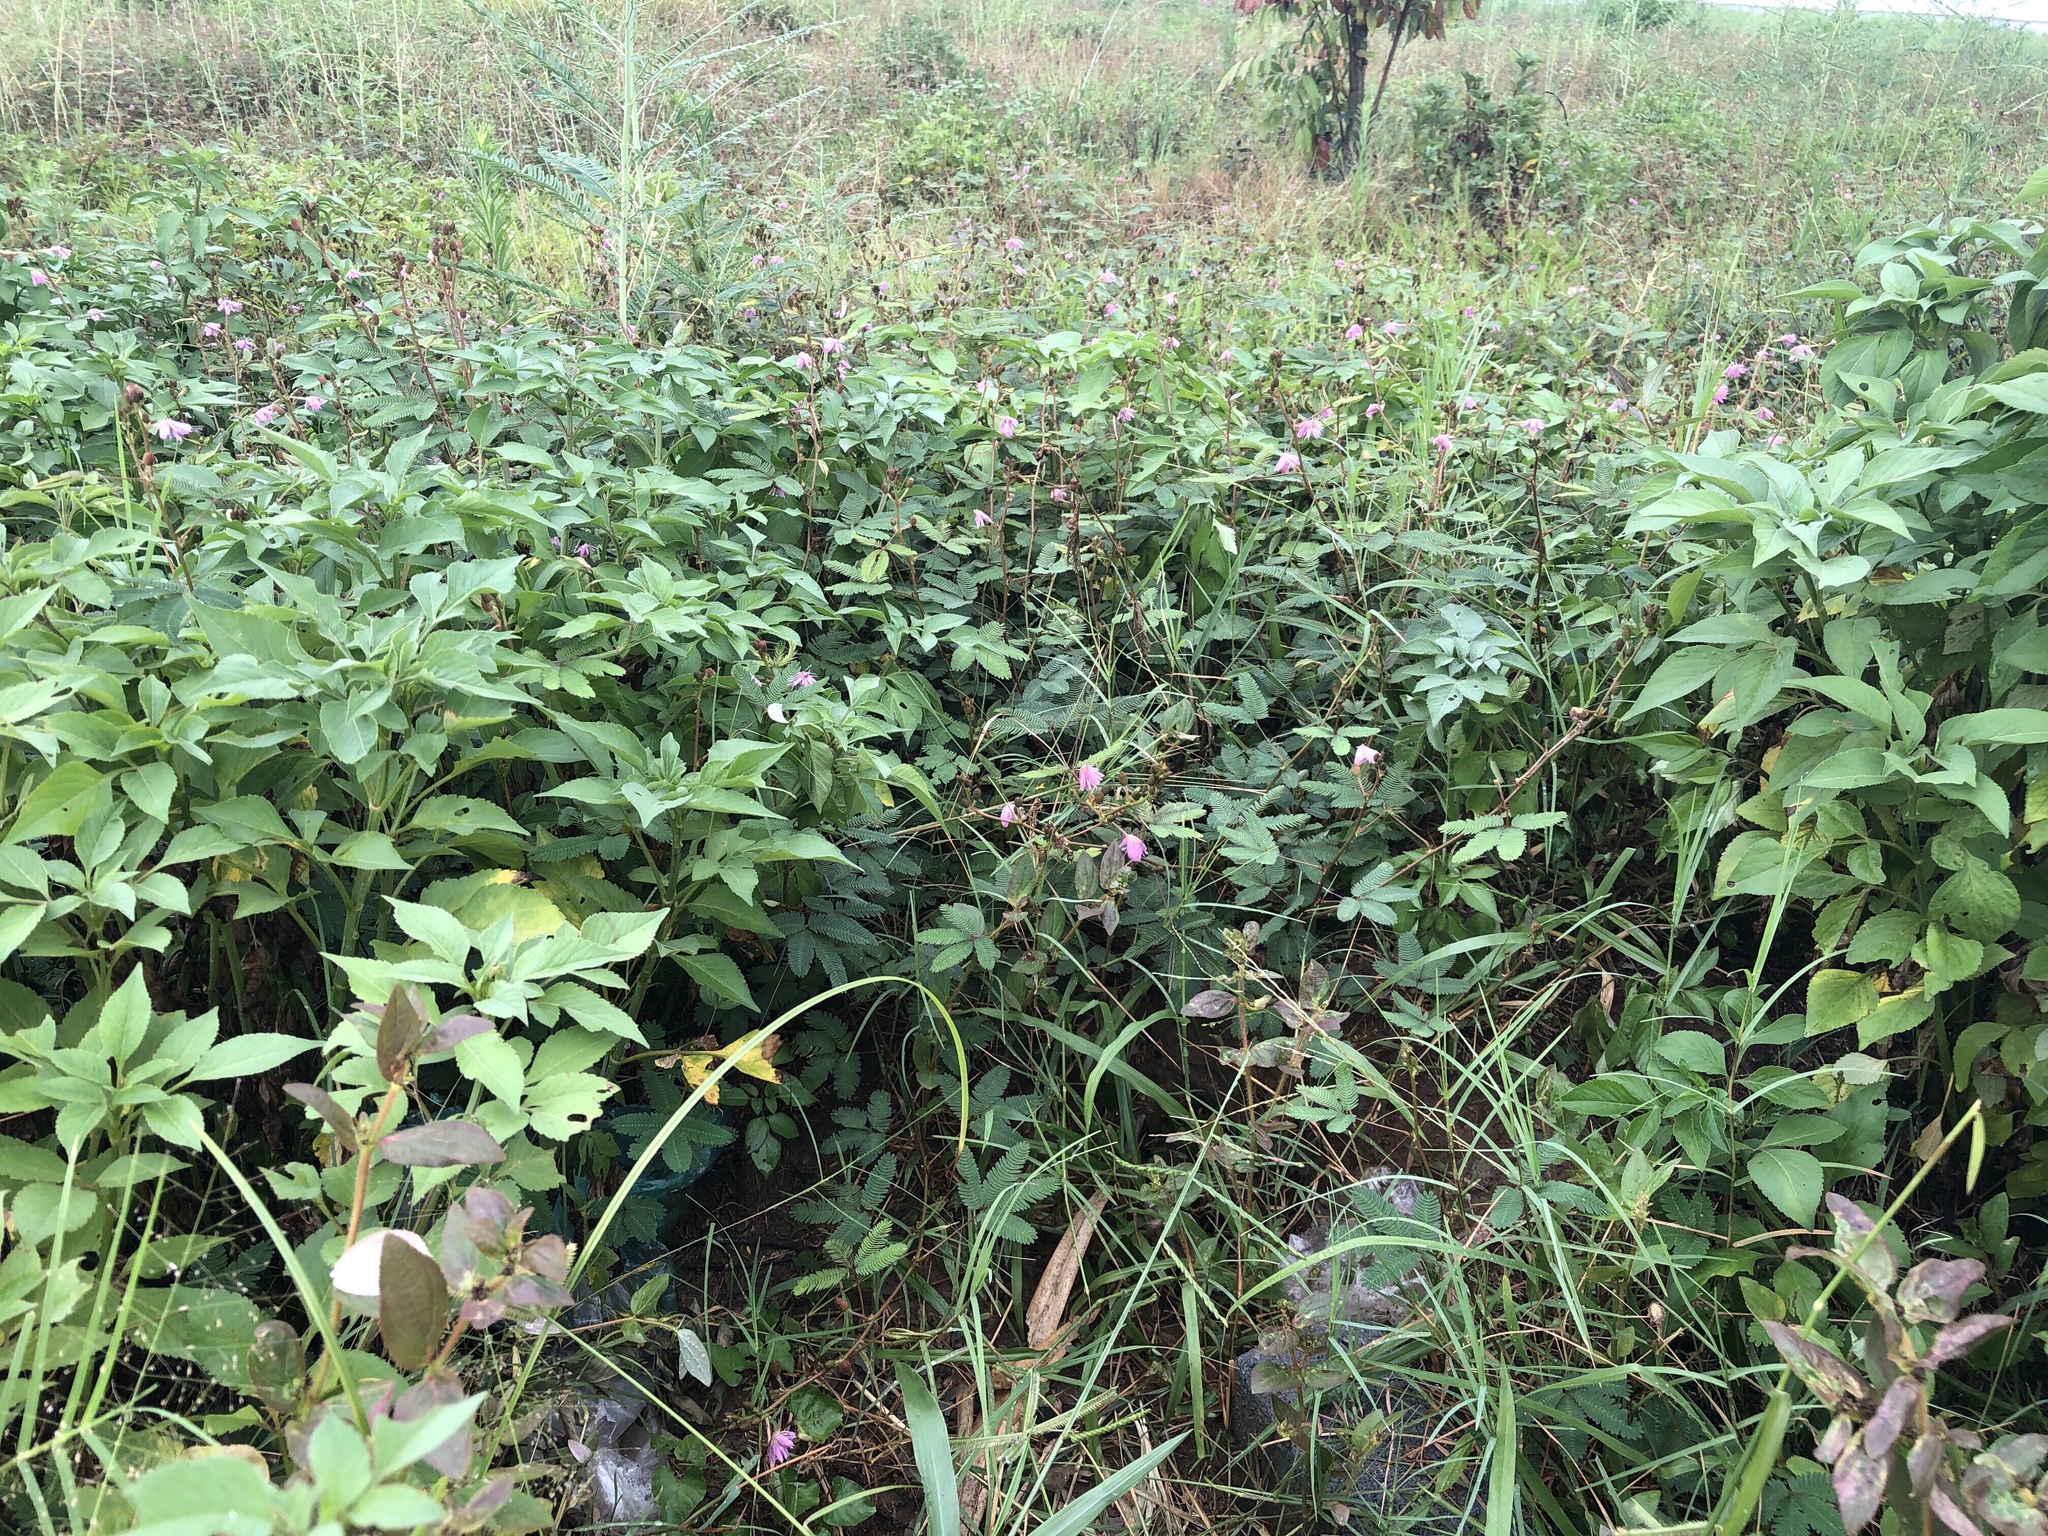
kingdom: Plantae
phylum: Tracheophyta
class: Magnoliopsida
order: Fabales
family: Fabaceae
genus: Mimosa
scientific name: Mimosa pudica
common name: Sensitive plant
